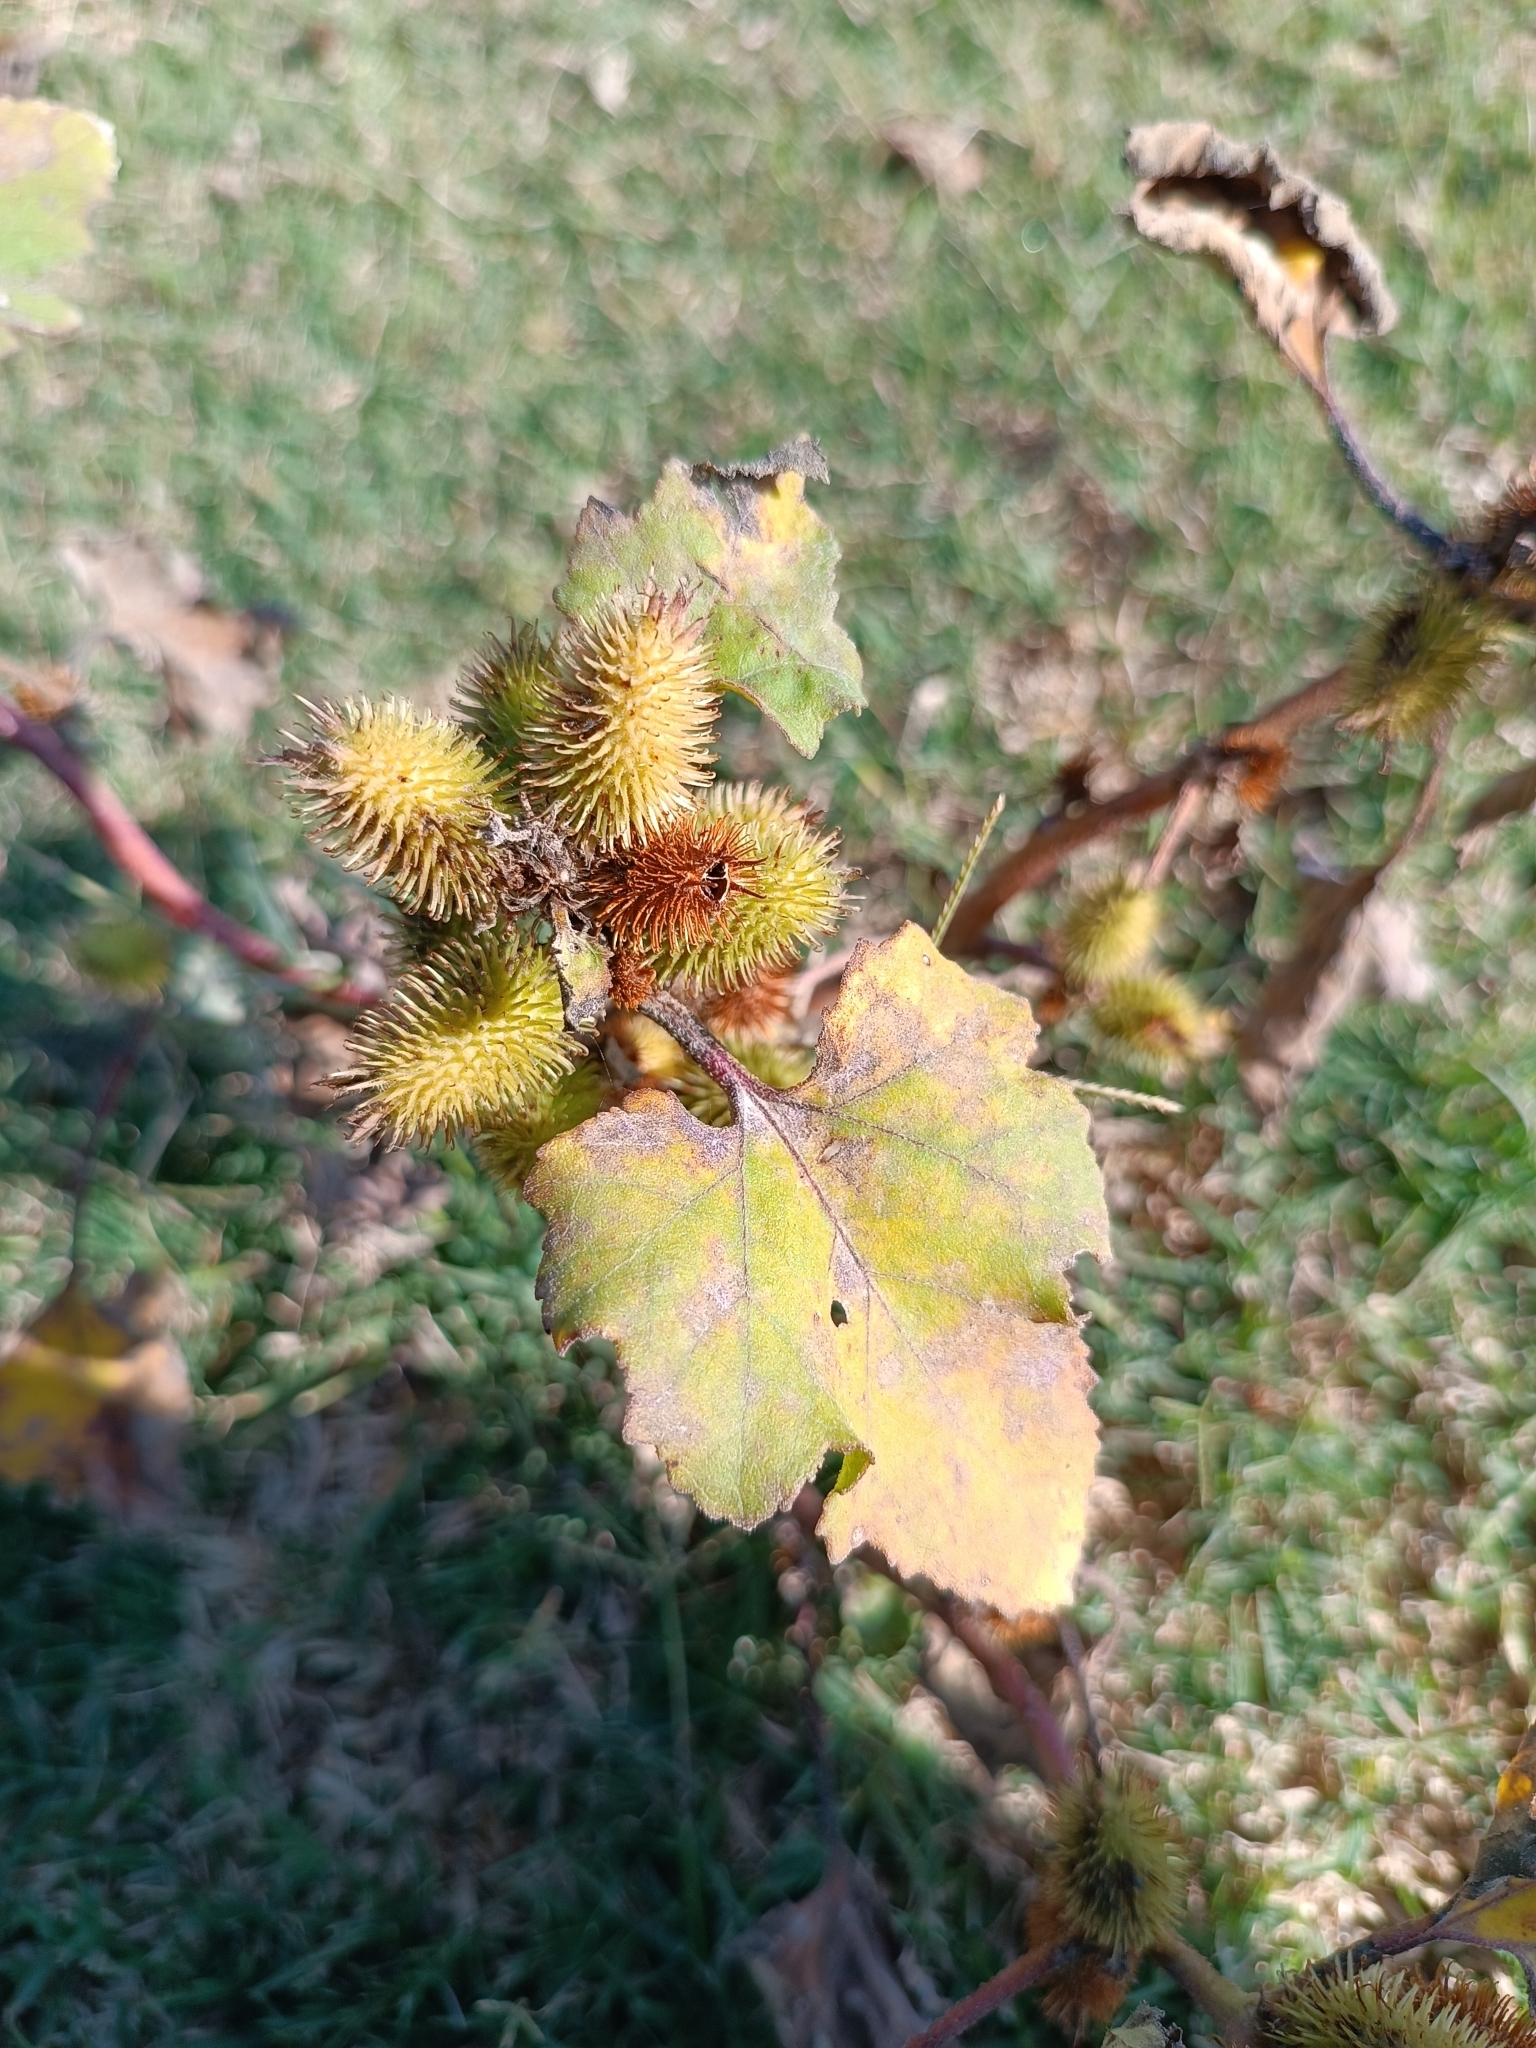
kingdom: Plantae
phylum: Tracheophyta
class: Magnoliopsida
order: Asterales
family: Asteraceae
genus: Xanthium
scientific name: Xanthium orientale
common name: Californian burr
